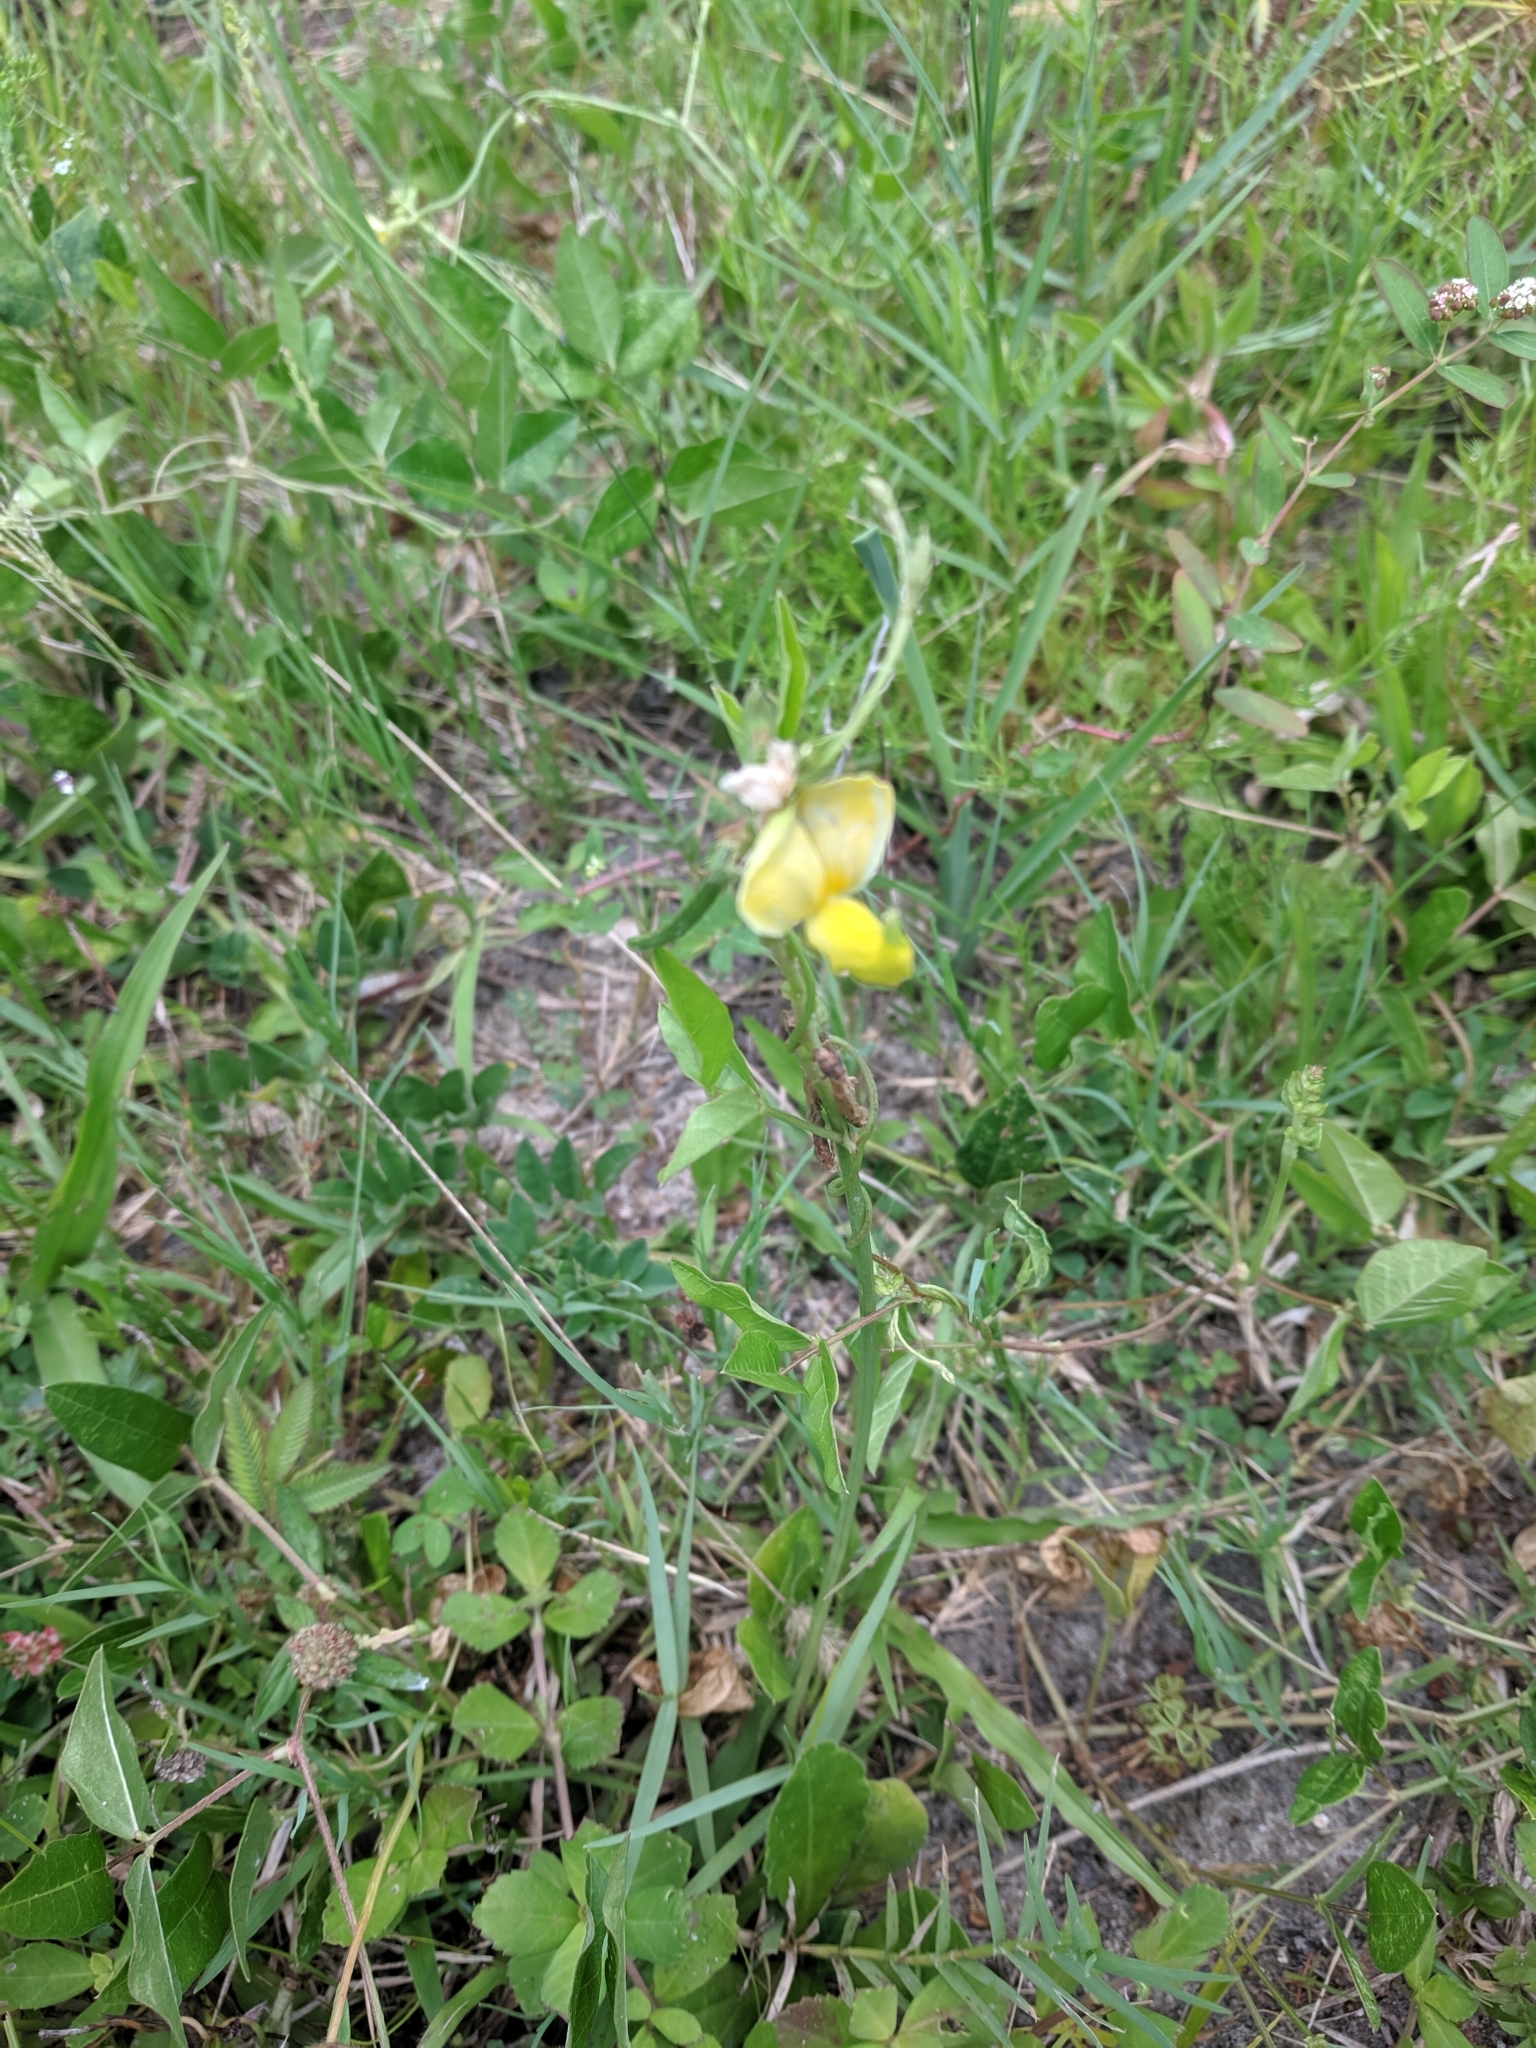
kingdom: Plantae
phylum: Tracheophyta
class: Magnoliopsida
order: Fabales
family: Fabaceae
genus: Vigna
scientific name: Vigna luteola
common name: Hairypod cowpea
